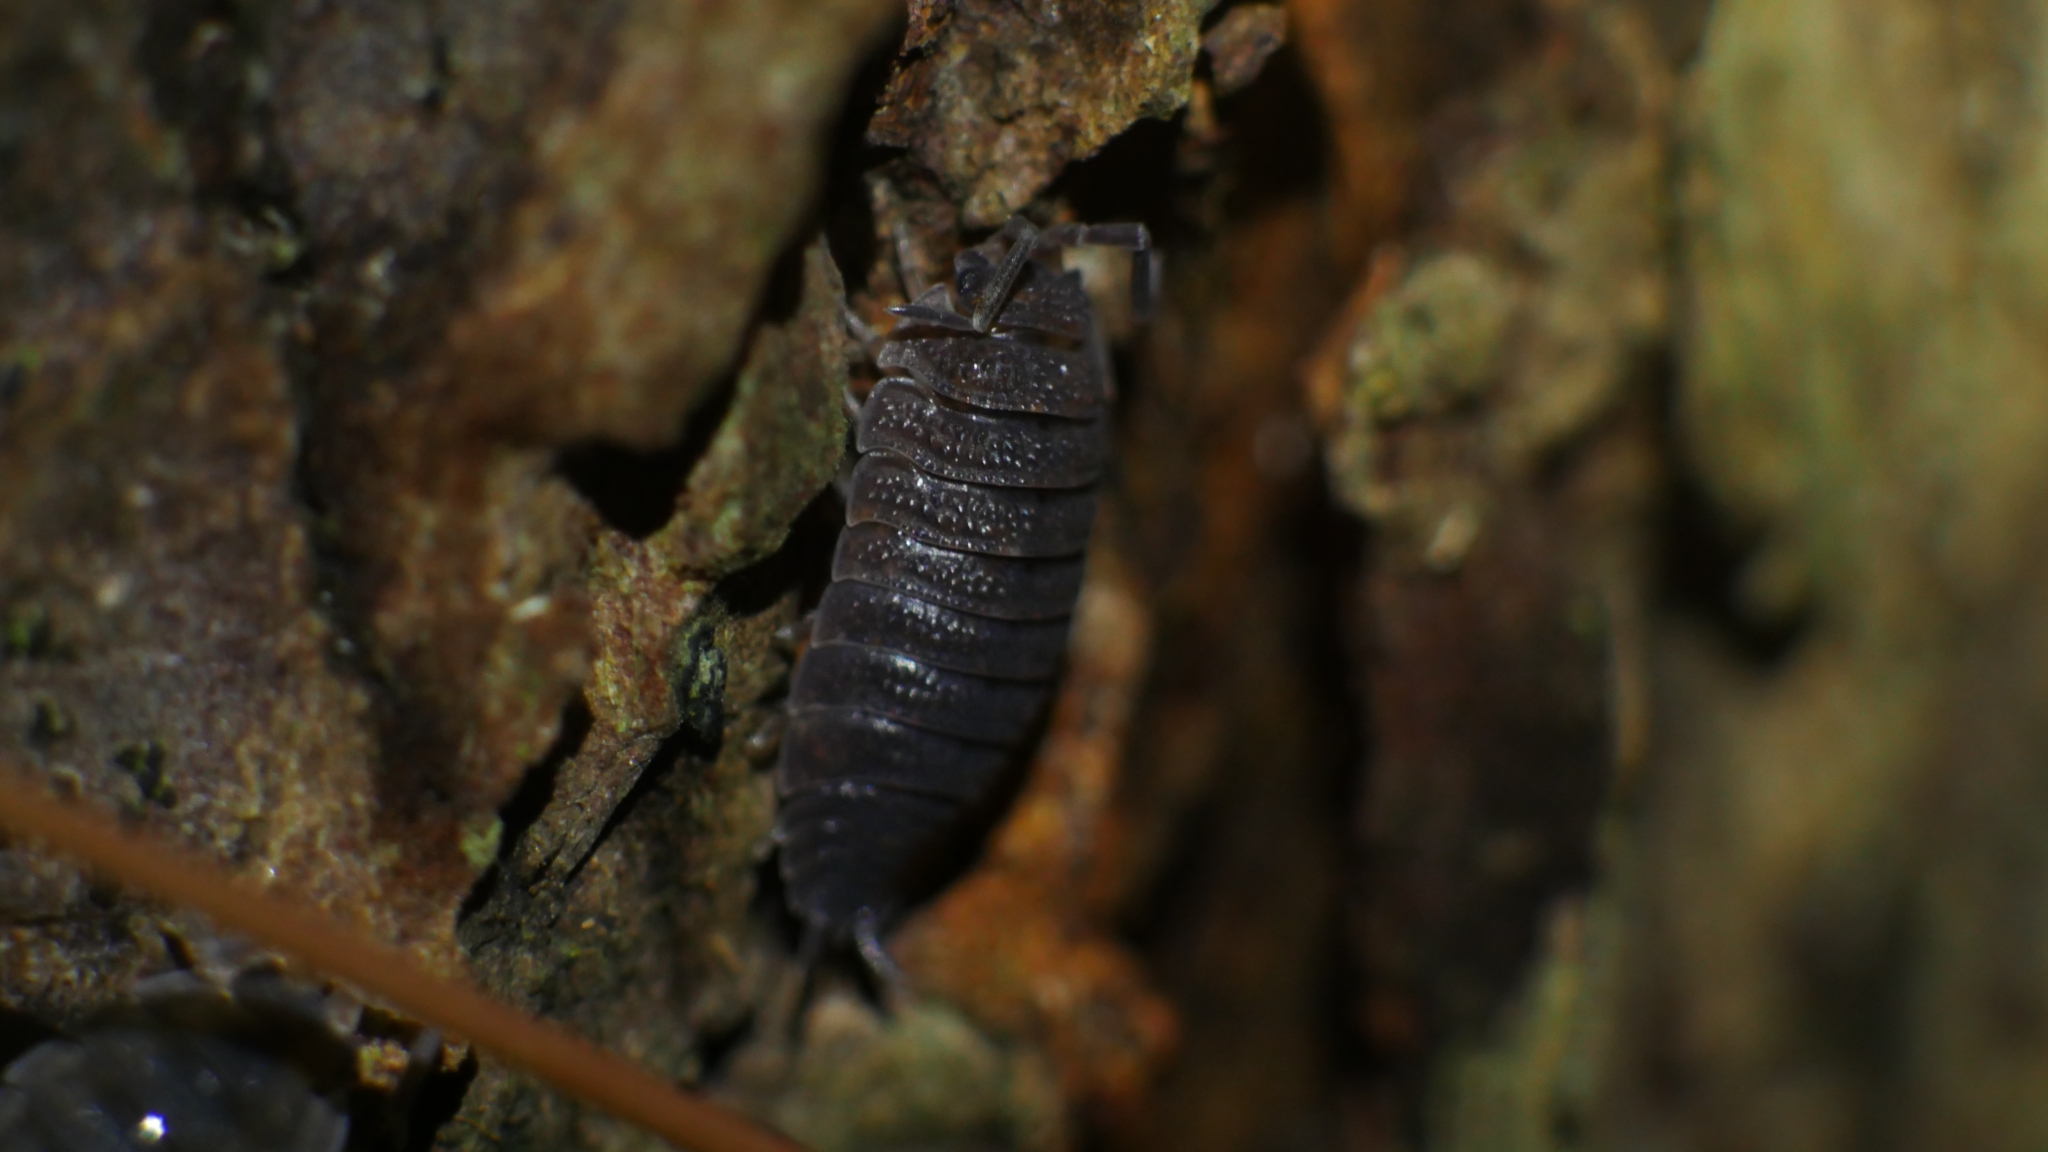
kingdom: Animalia
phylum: Arthropoda
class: Malacostraca
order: Isopoda
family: Porcellionidae
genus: Porcellio
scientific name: Porcellio scaber
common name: Common rough woodlouse
